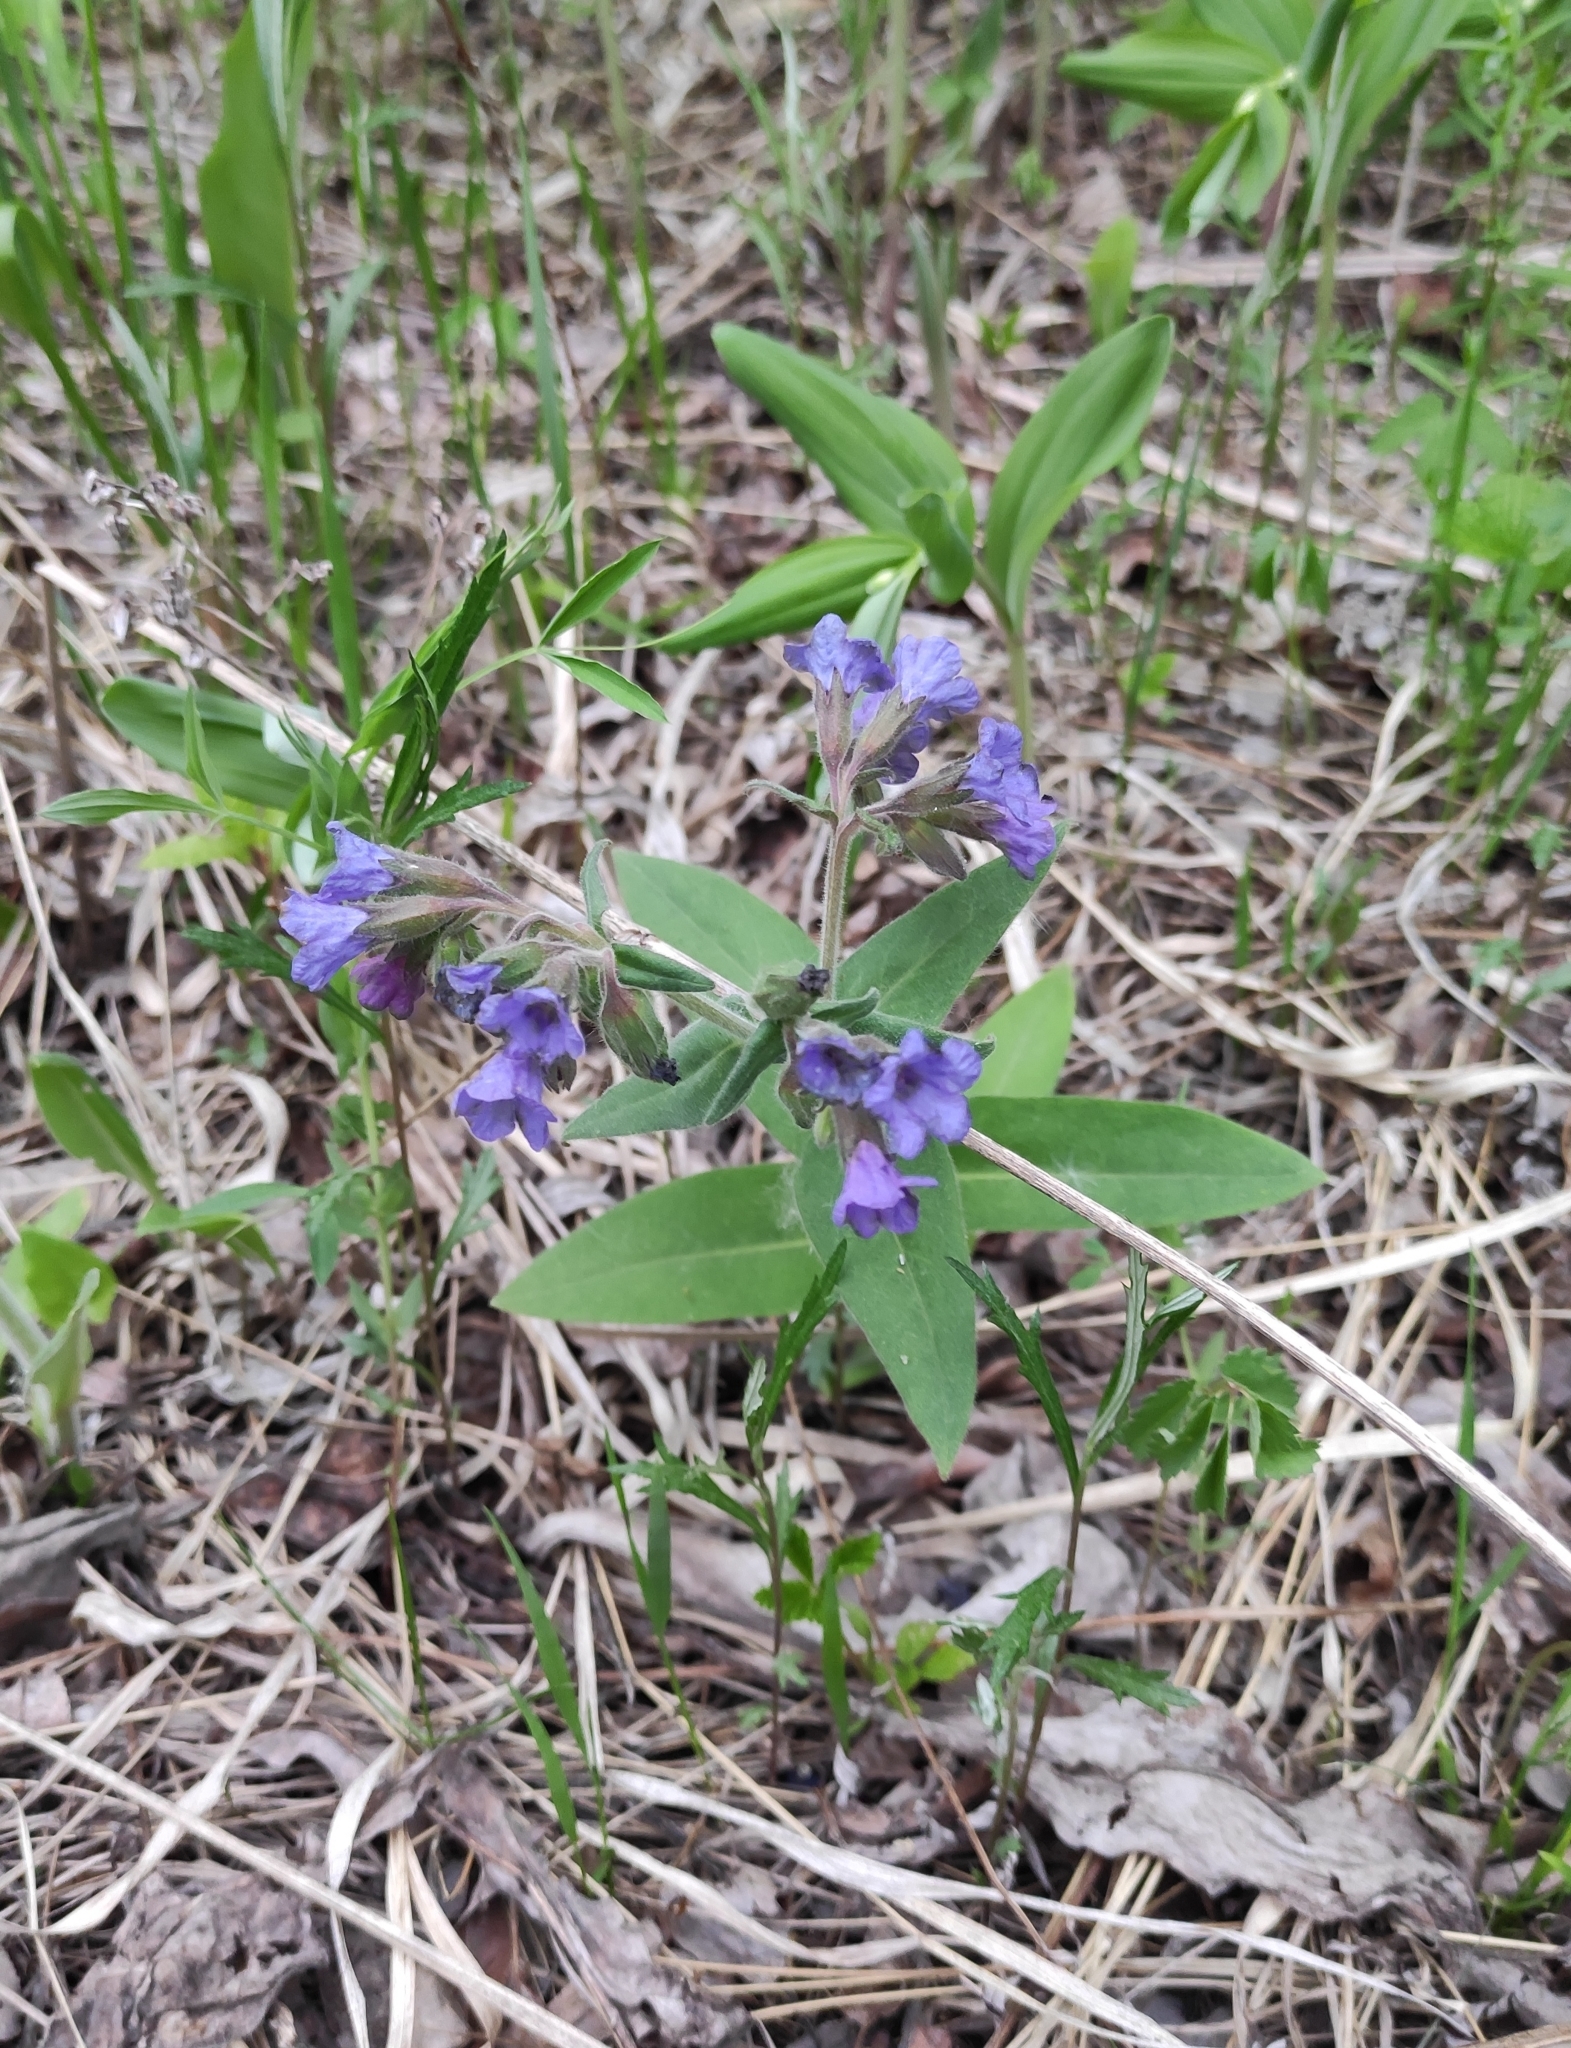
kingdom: Plantae
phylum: Tracheophyta
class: Magnoliopsida
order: Boraginales
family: Boraginaceae
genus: Pulmonaria
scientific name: Pulmonaria mollis
